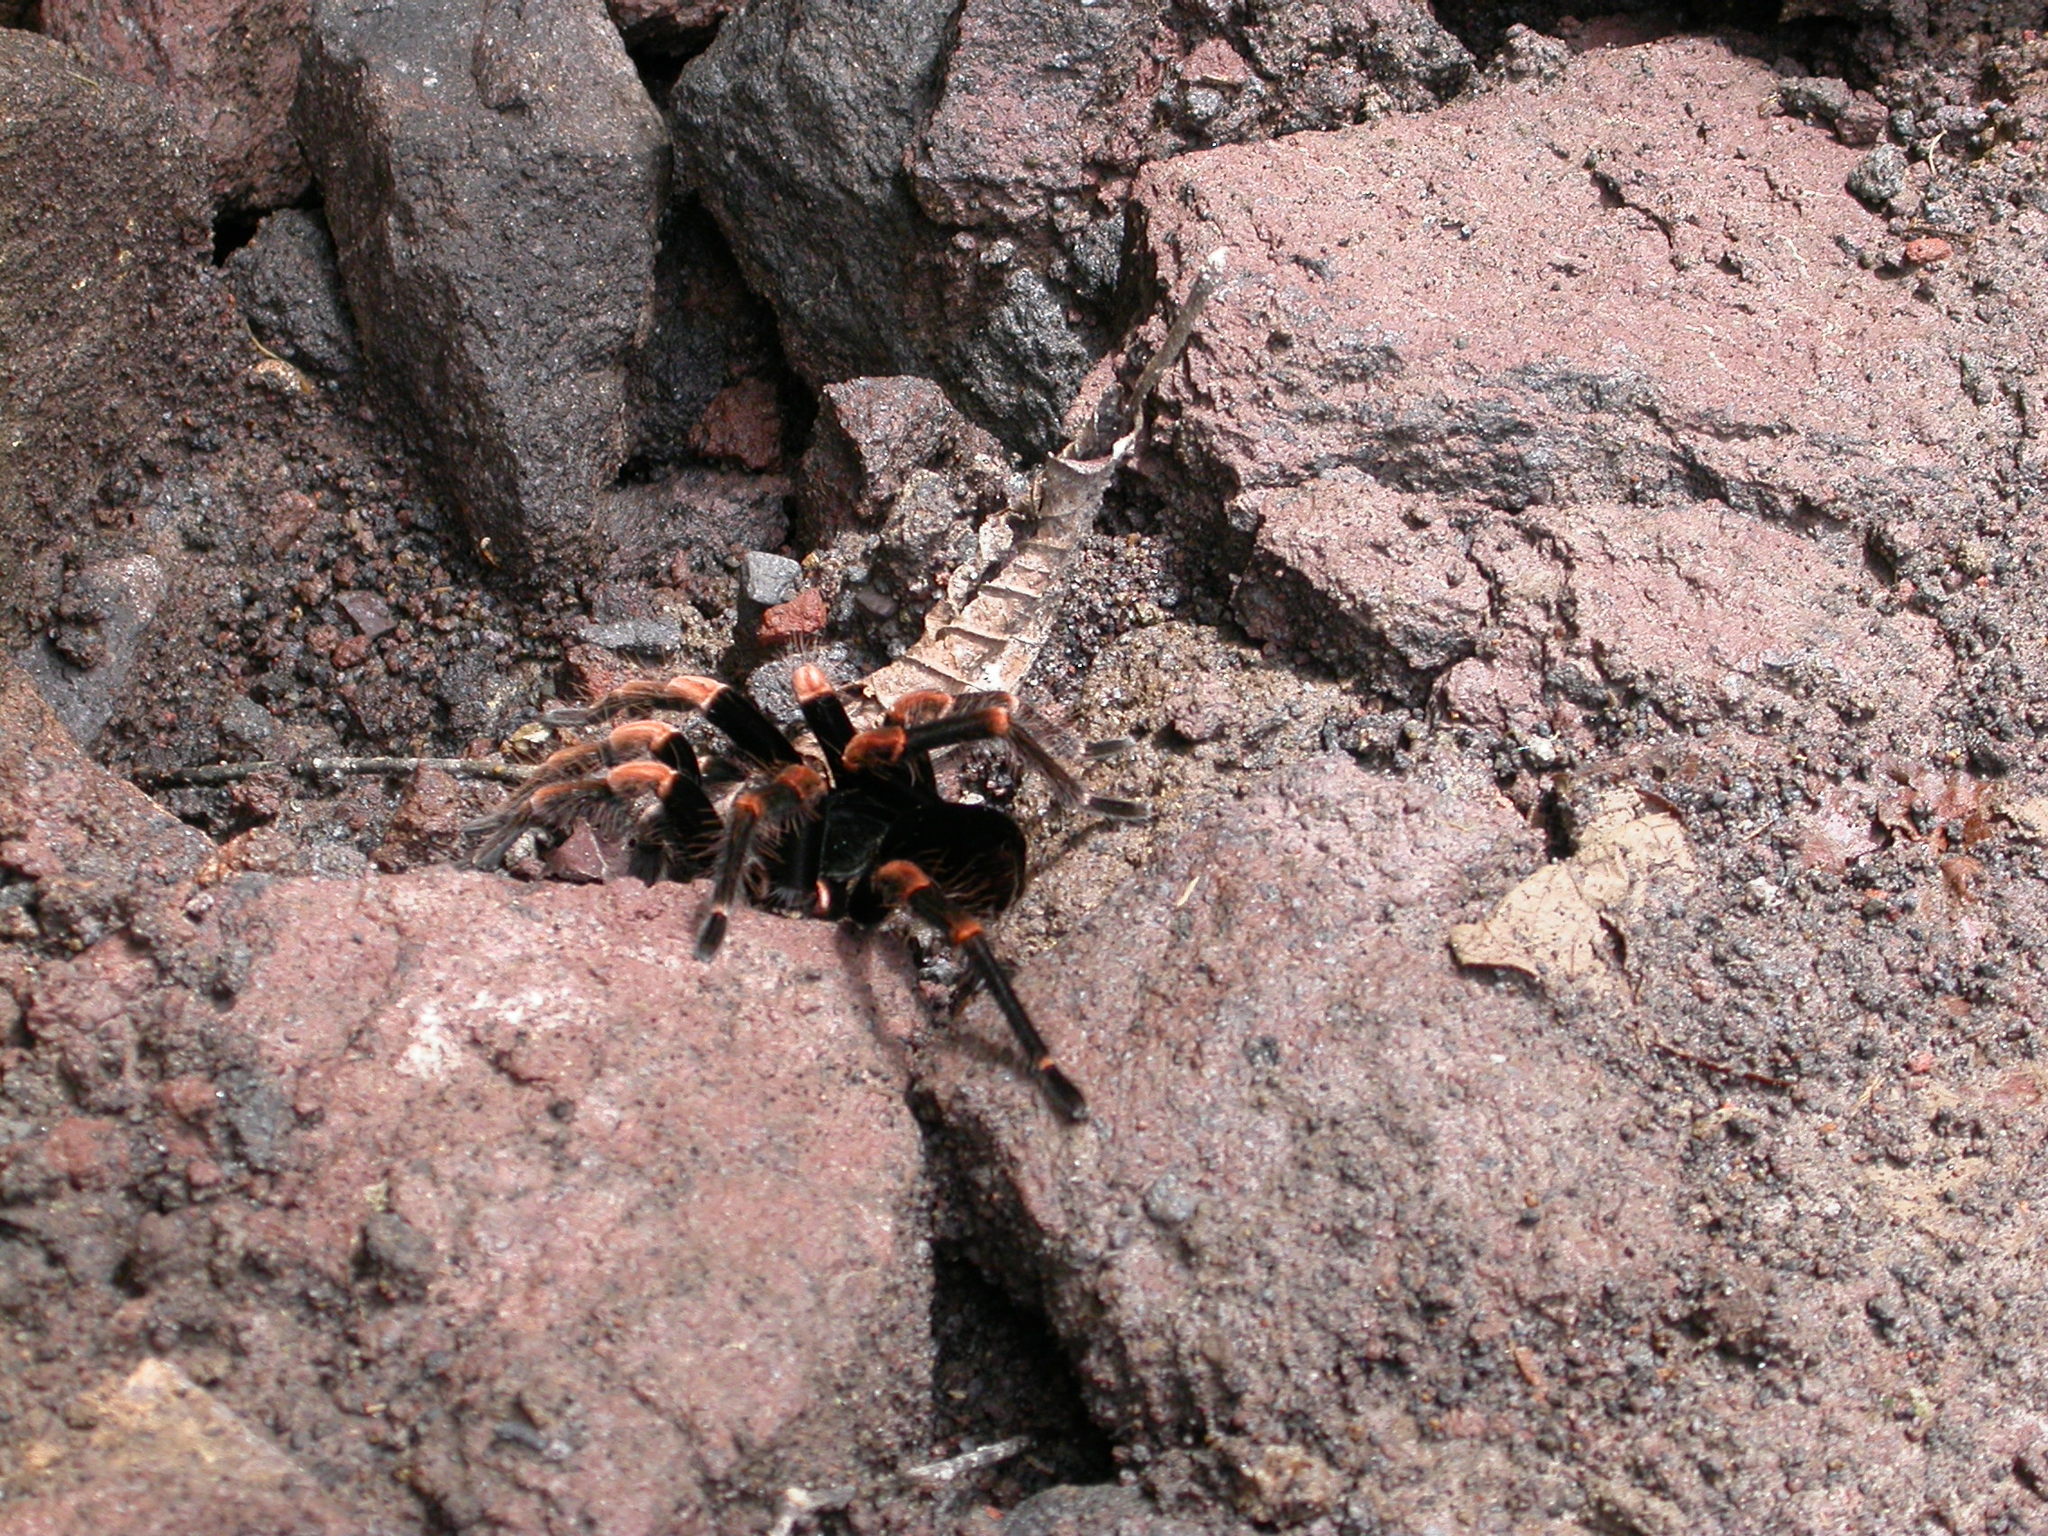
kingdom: Animalia
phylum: Arthropoda
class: Arachnida
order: Araneae
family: Theraphosidae
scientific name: Theraphosidae
